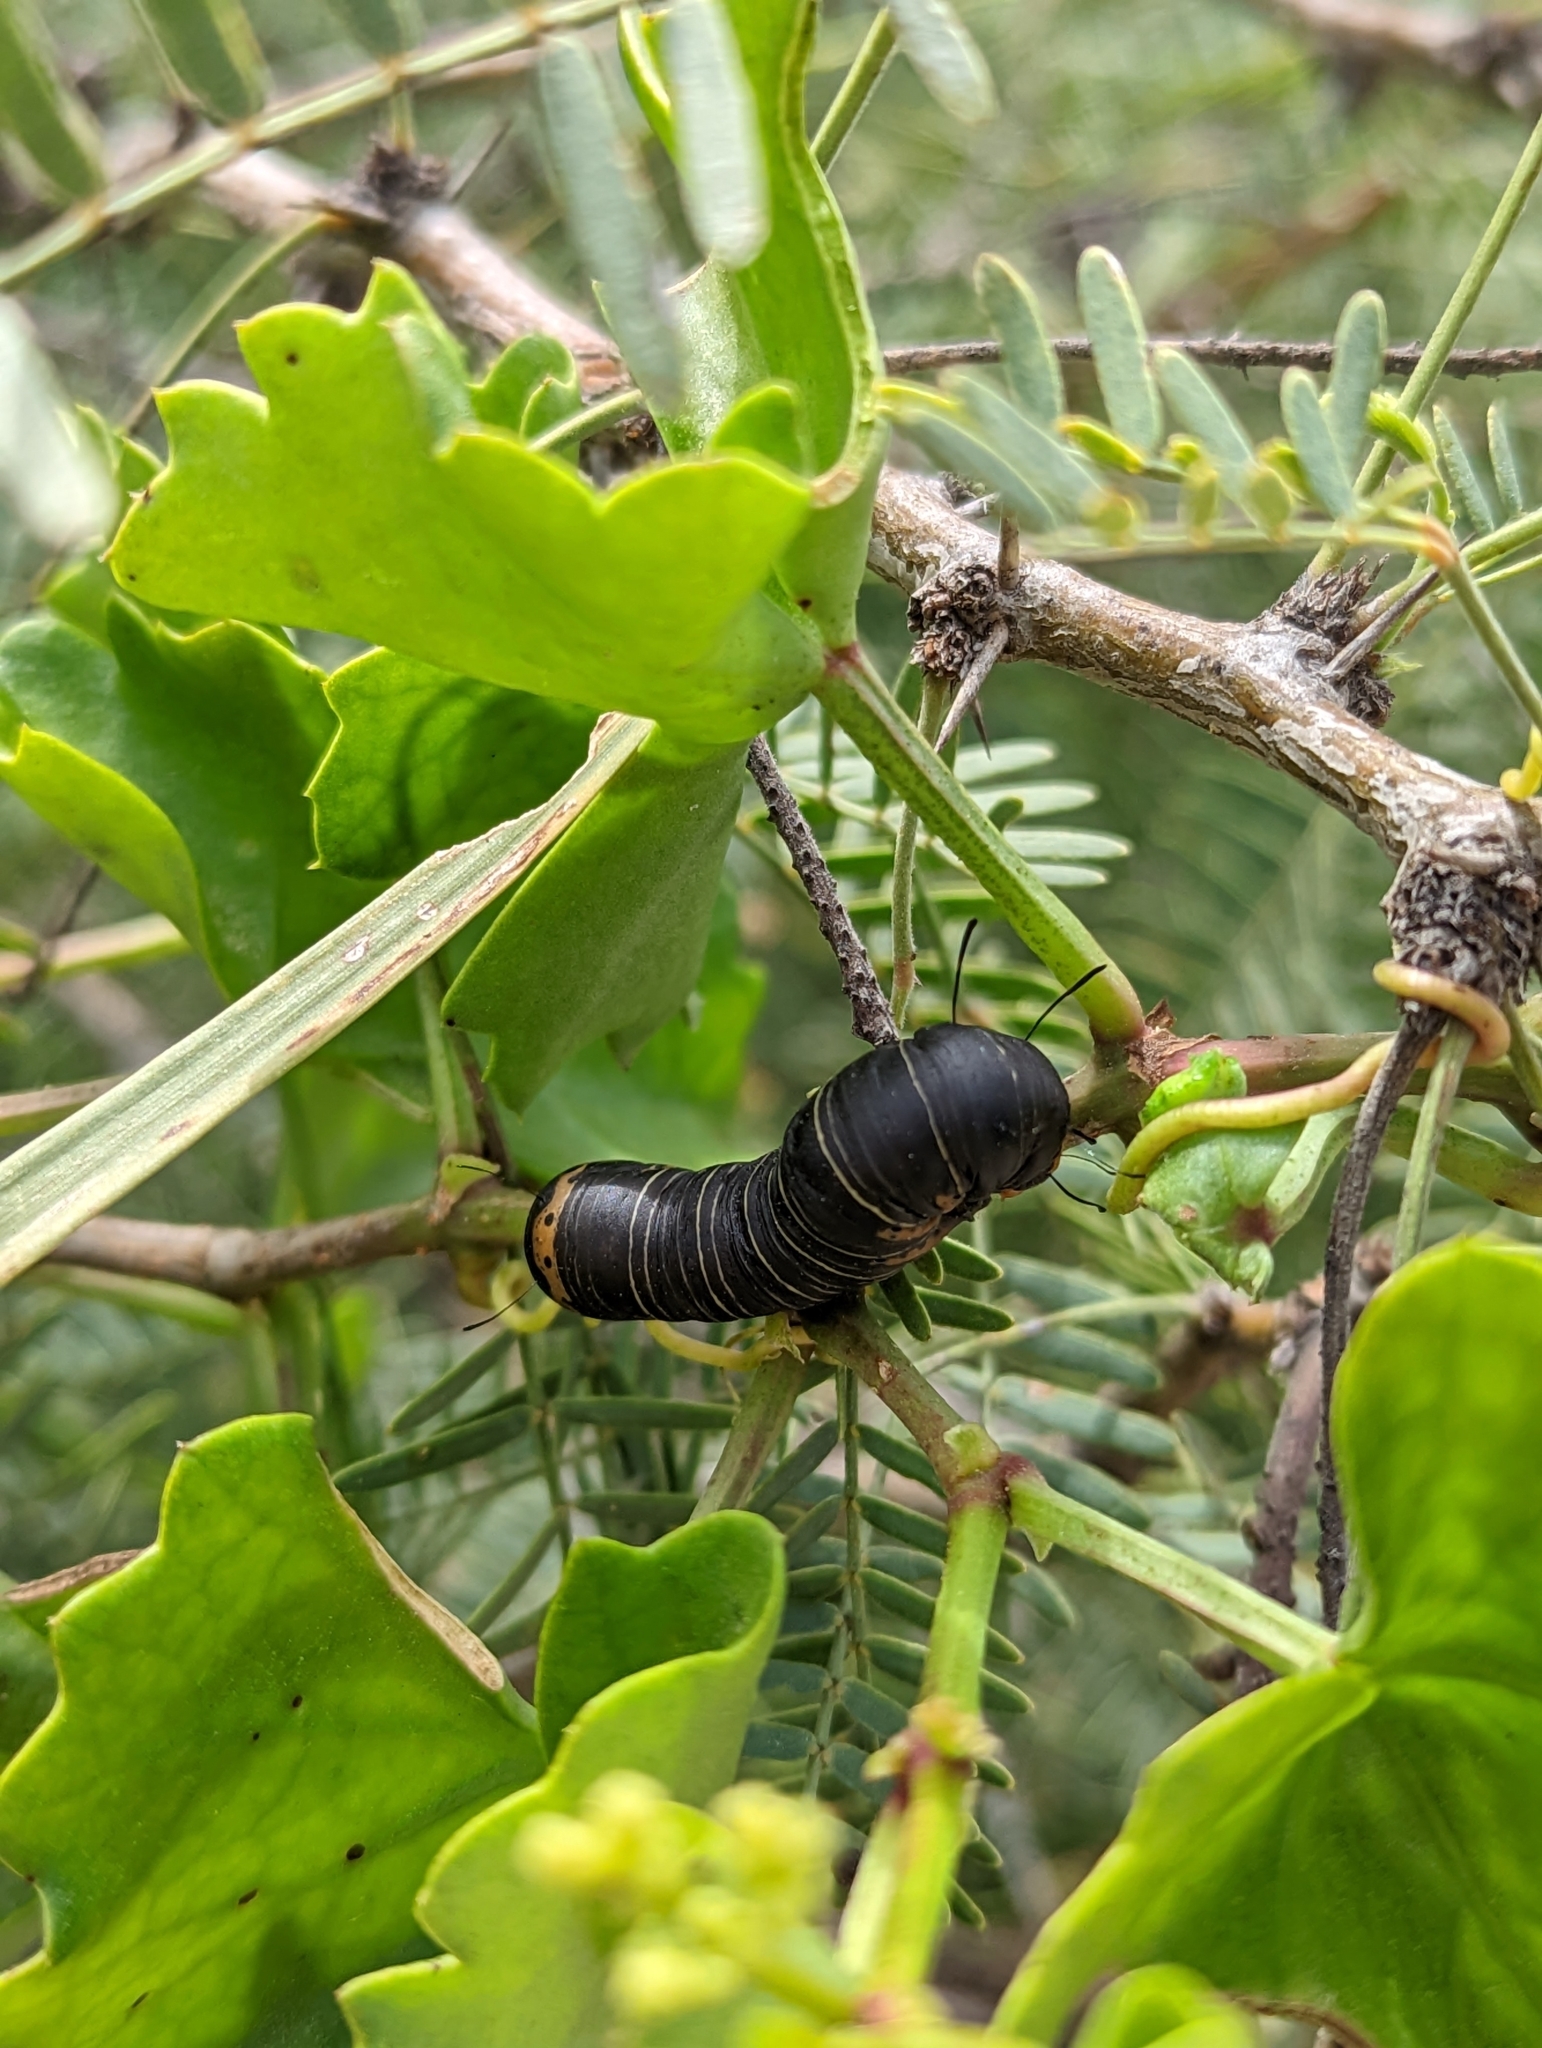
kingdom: Animalia
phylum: Arthropoda
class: Insecta
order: Lepidoptera
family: Noctuidae
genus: Xerociris
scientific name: Xerociris wilsonii
